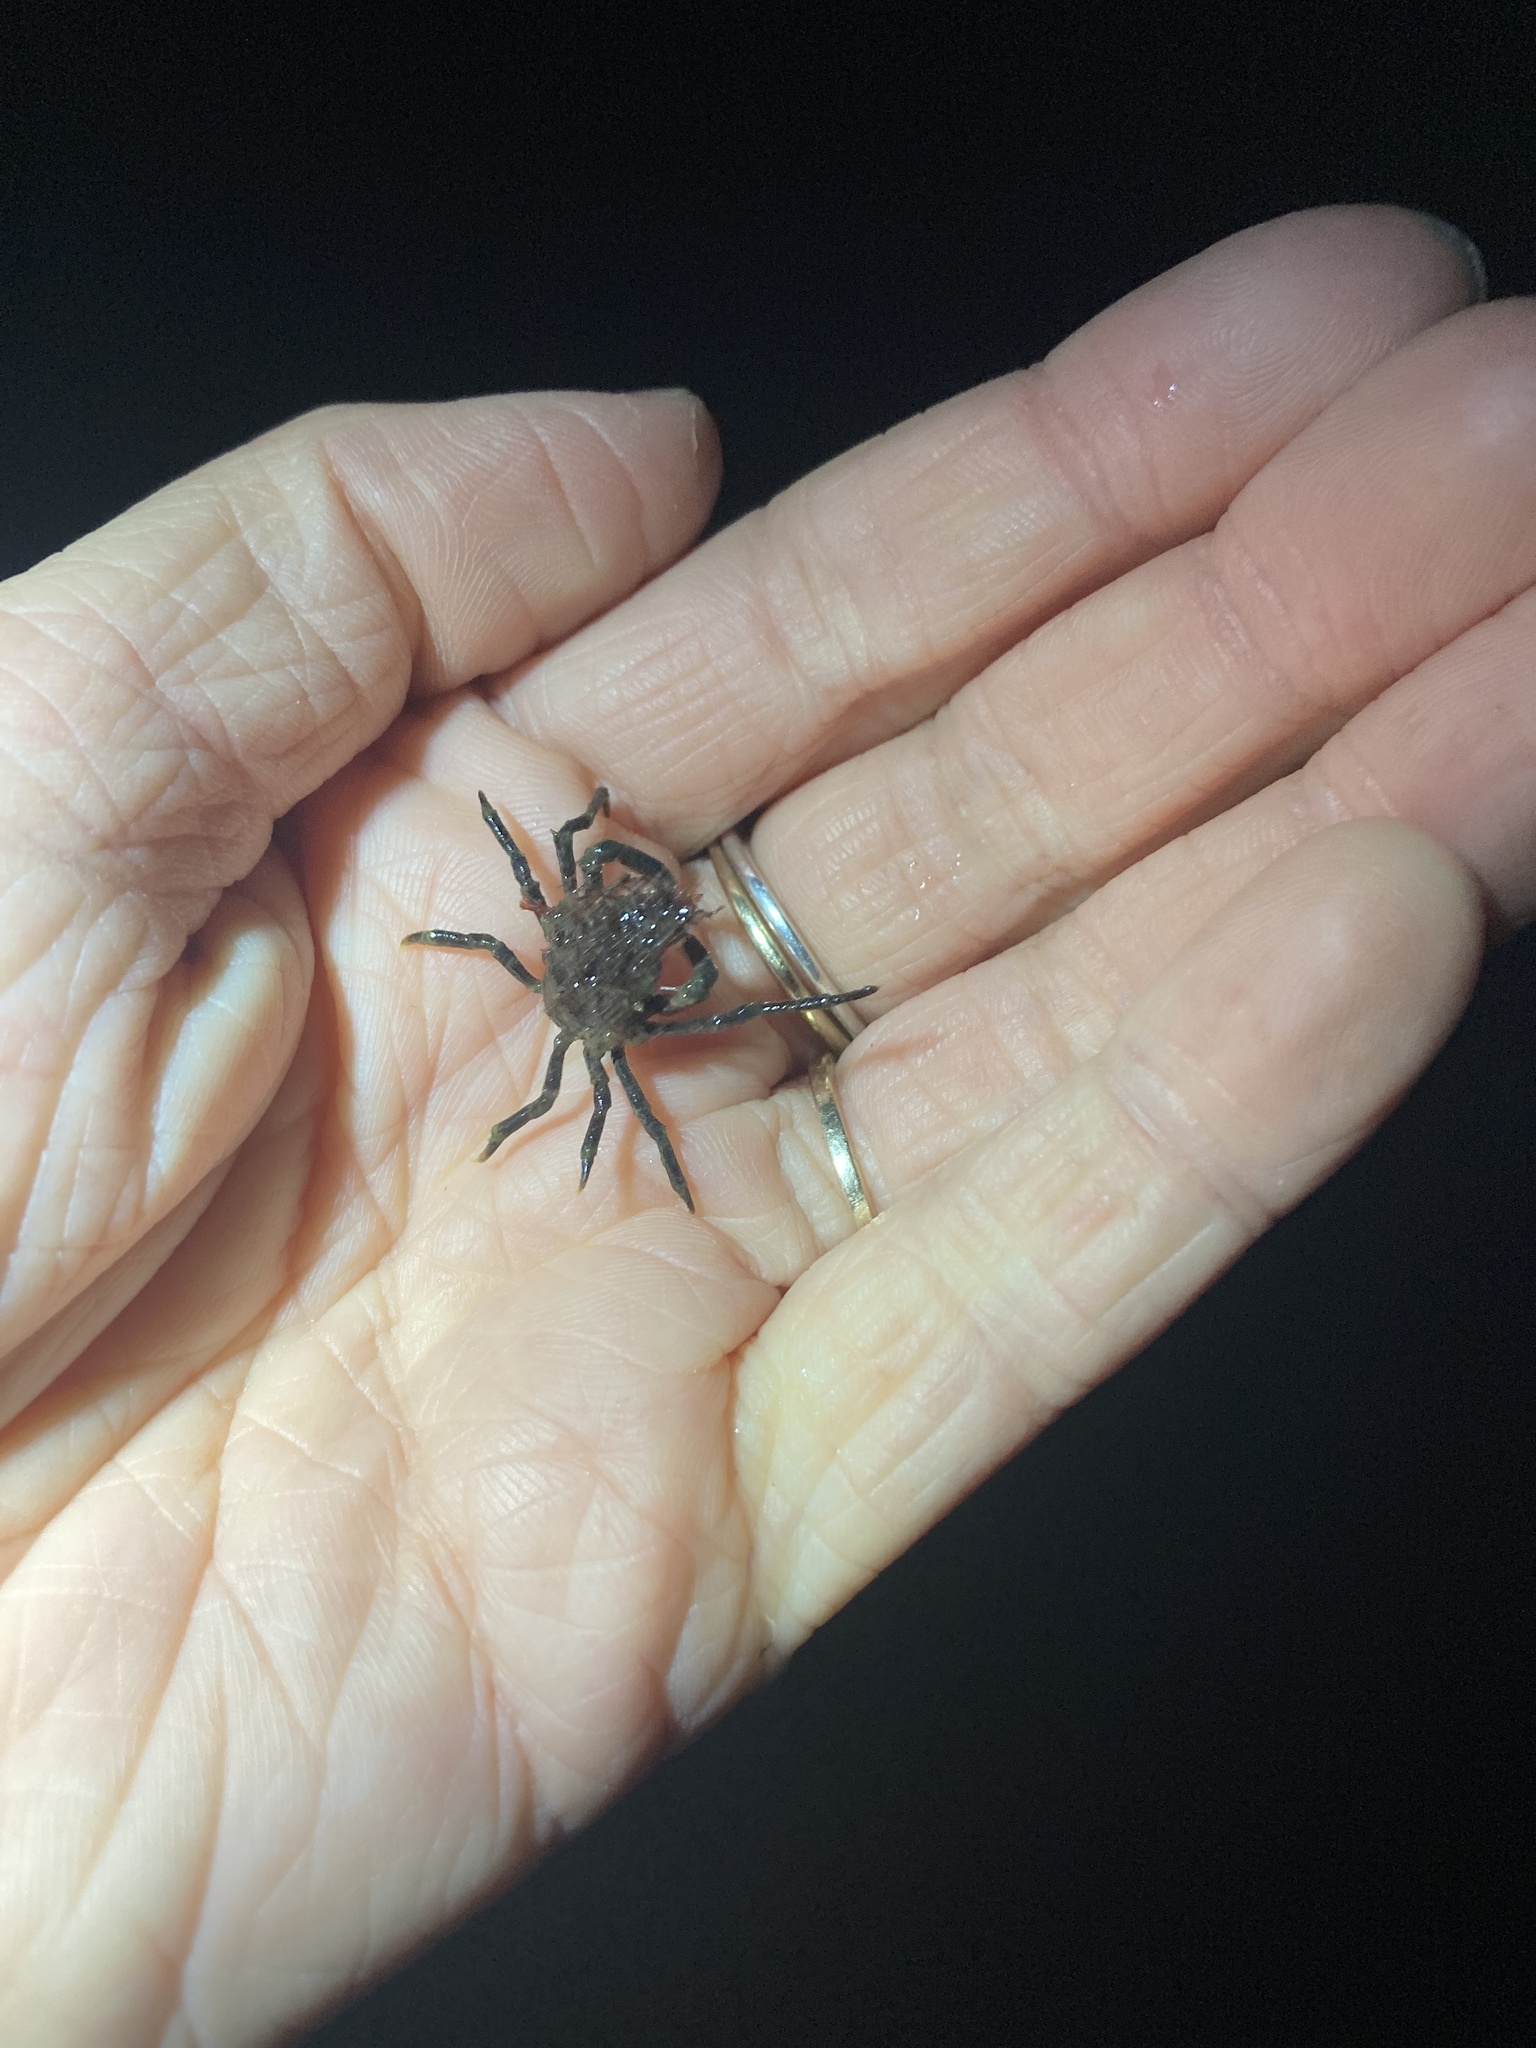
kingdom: Animalia
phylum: Arthropoda
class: Malacostraca
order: Decapoda
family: Epialtidae
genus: Pugettia
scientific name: Pugettia gracilis
